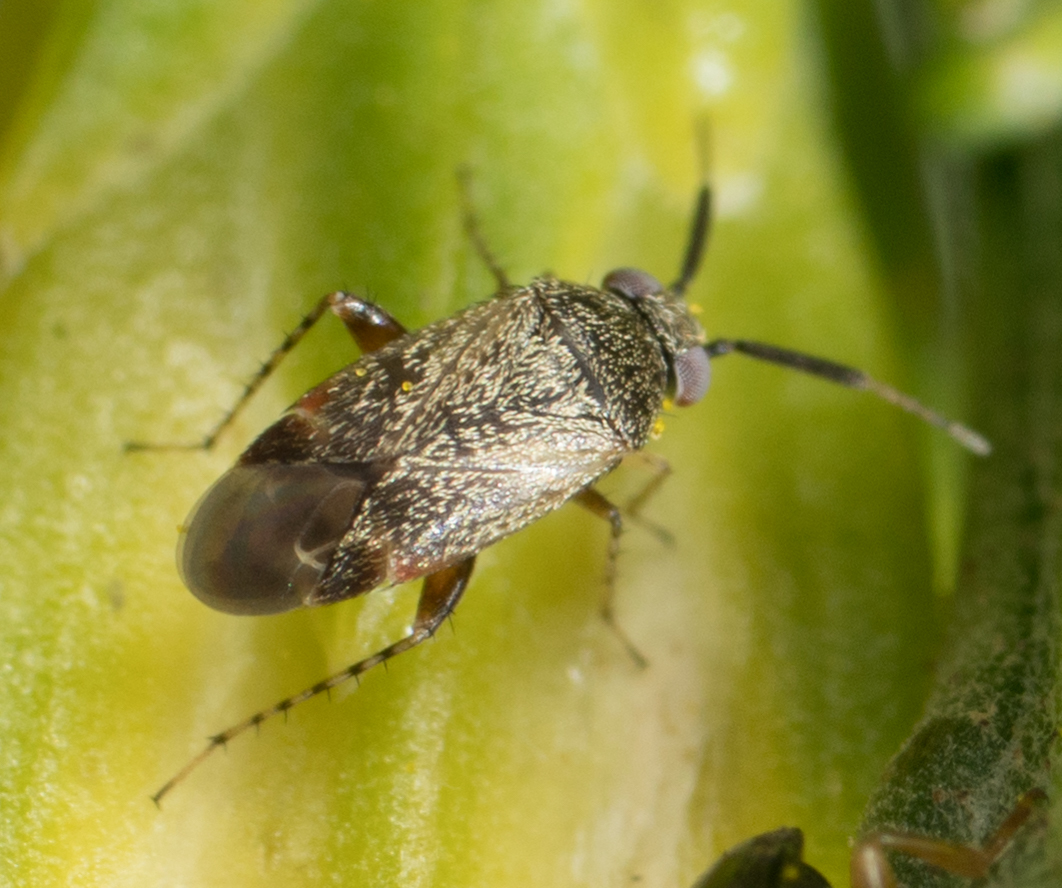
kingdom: Animalia
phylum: Arthropoda
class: Insecta
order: Hemiptera
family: Miridae
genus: Rhinacloa
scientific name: Rhinacloa forticornis
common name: Brown cotton mirid
